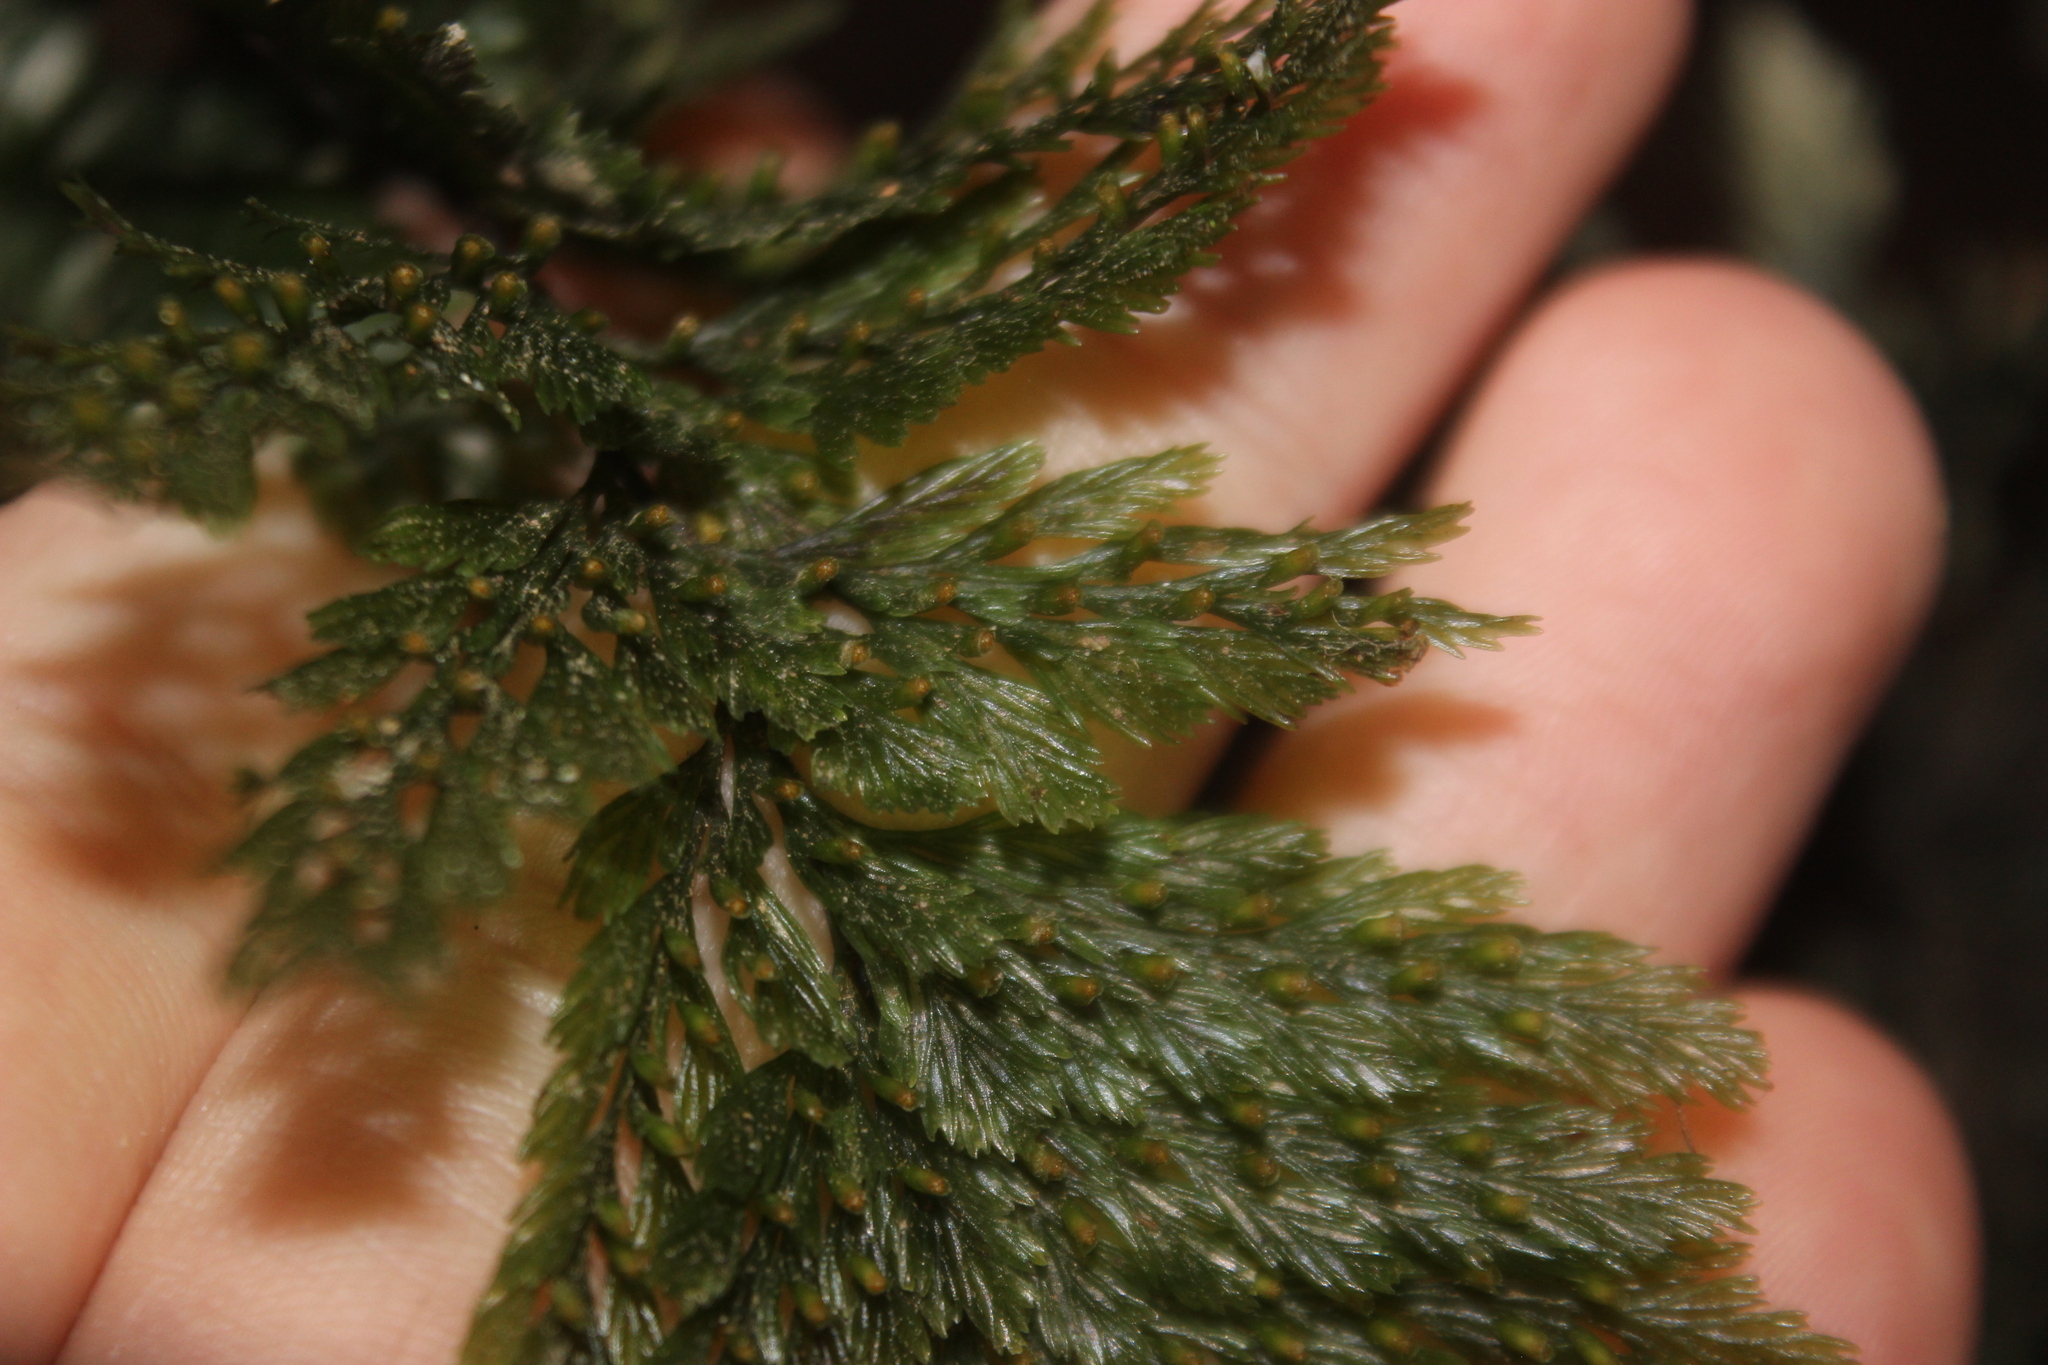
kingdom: Plantae
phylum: Tracheophyta
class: Polypodiopsida
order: Hymenophyllales
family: Hymenophyllaceae
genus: Abrodictyum
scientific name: Abrodictyum elongatum
